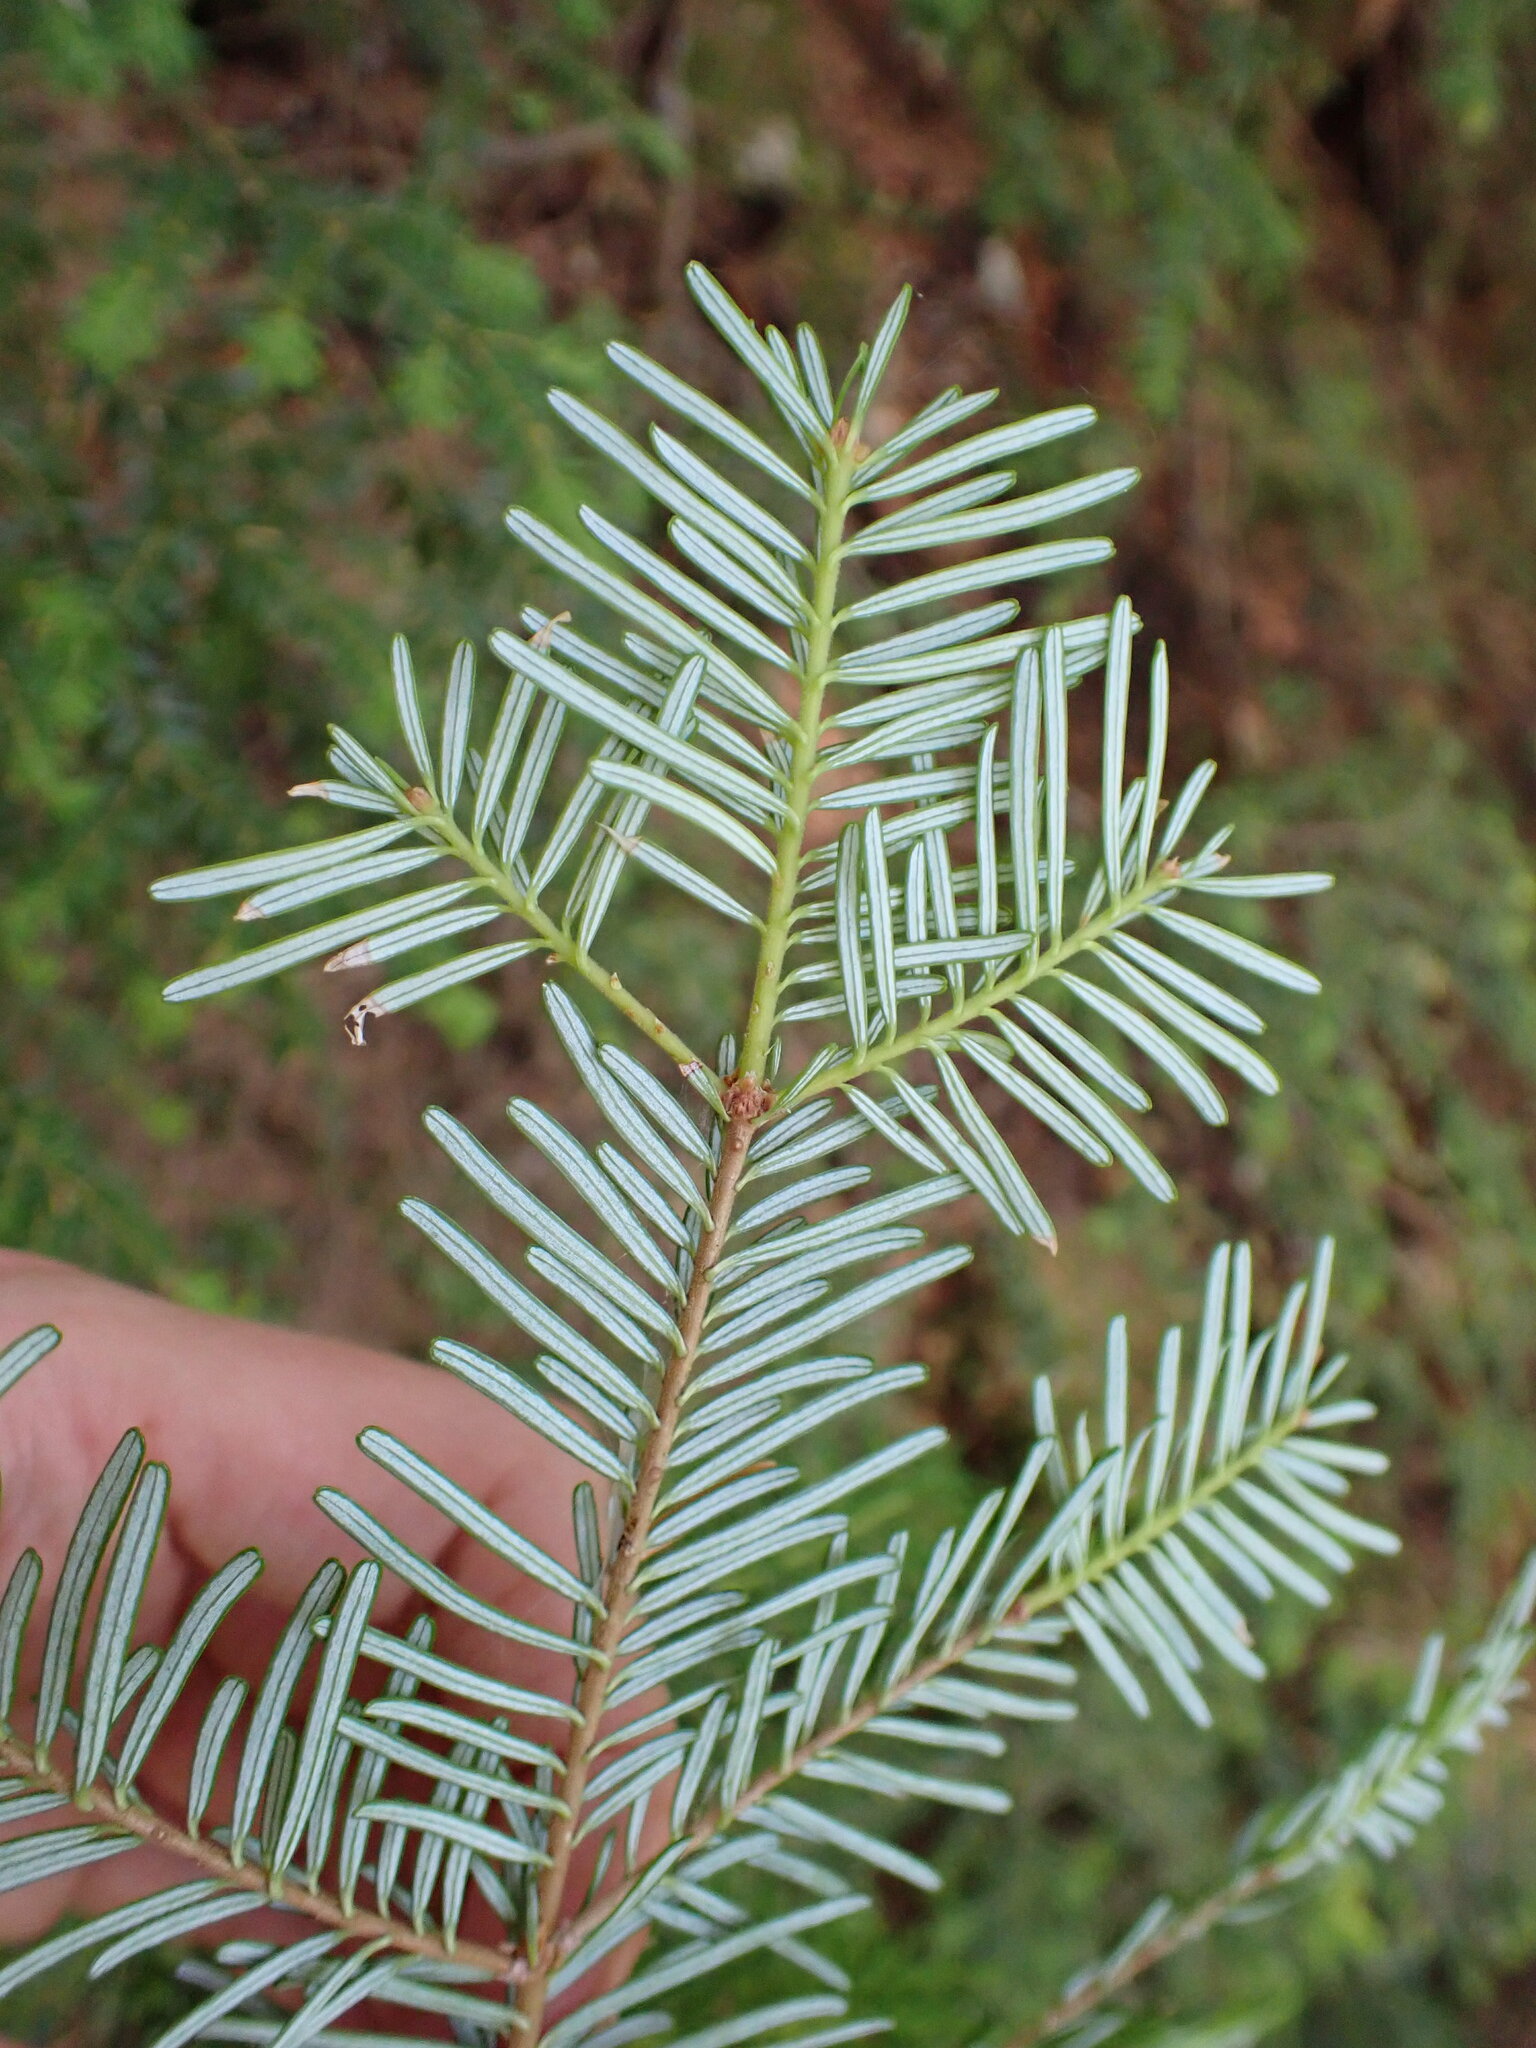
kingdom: Plantae
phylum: Tracheophyta
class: Pinopsida
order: Pinales
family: Pinaceae
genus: Abies
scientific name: Abies amabilis
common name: Pacific silver fir
